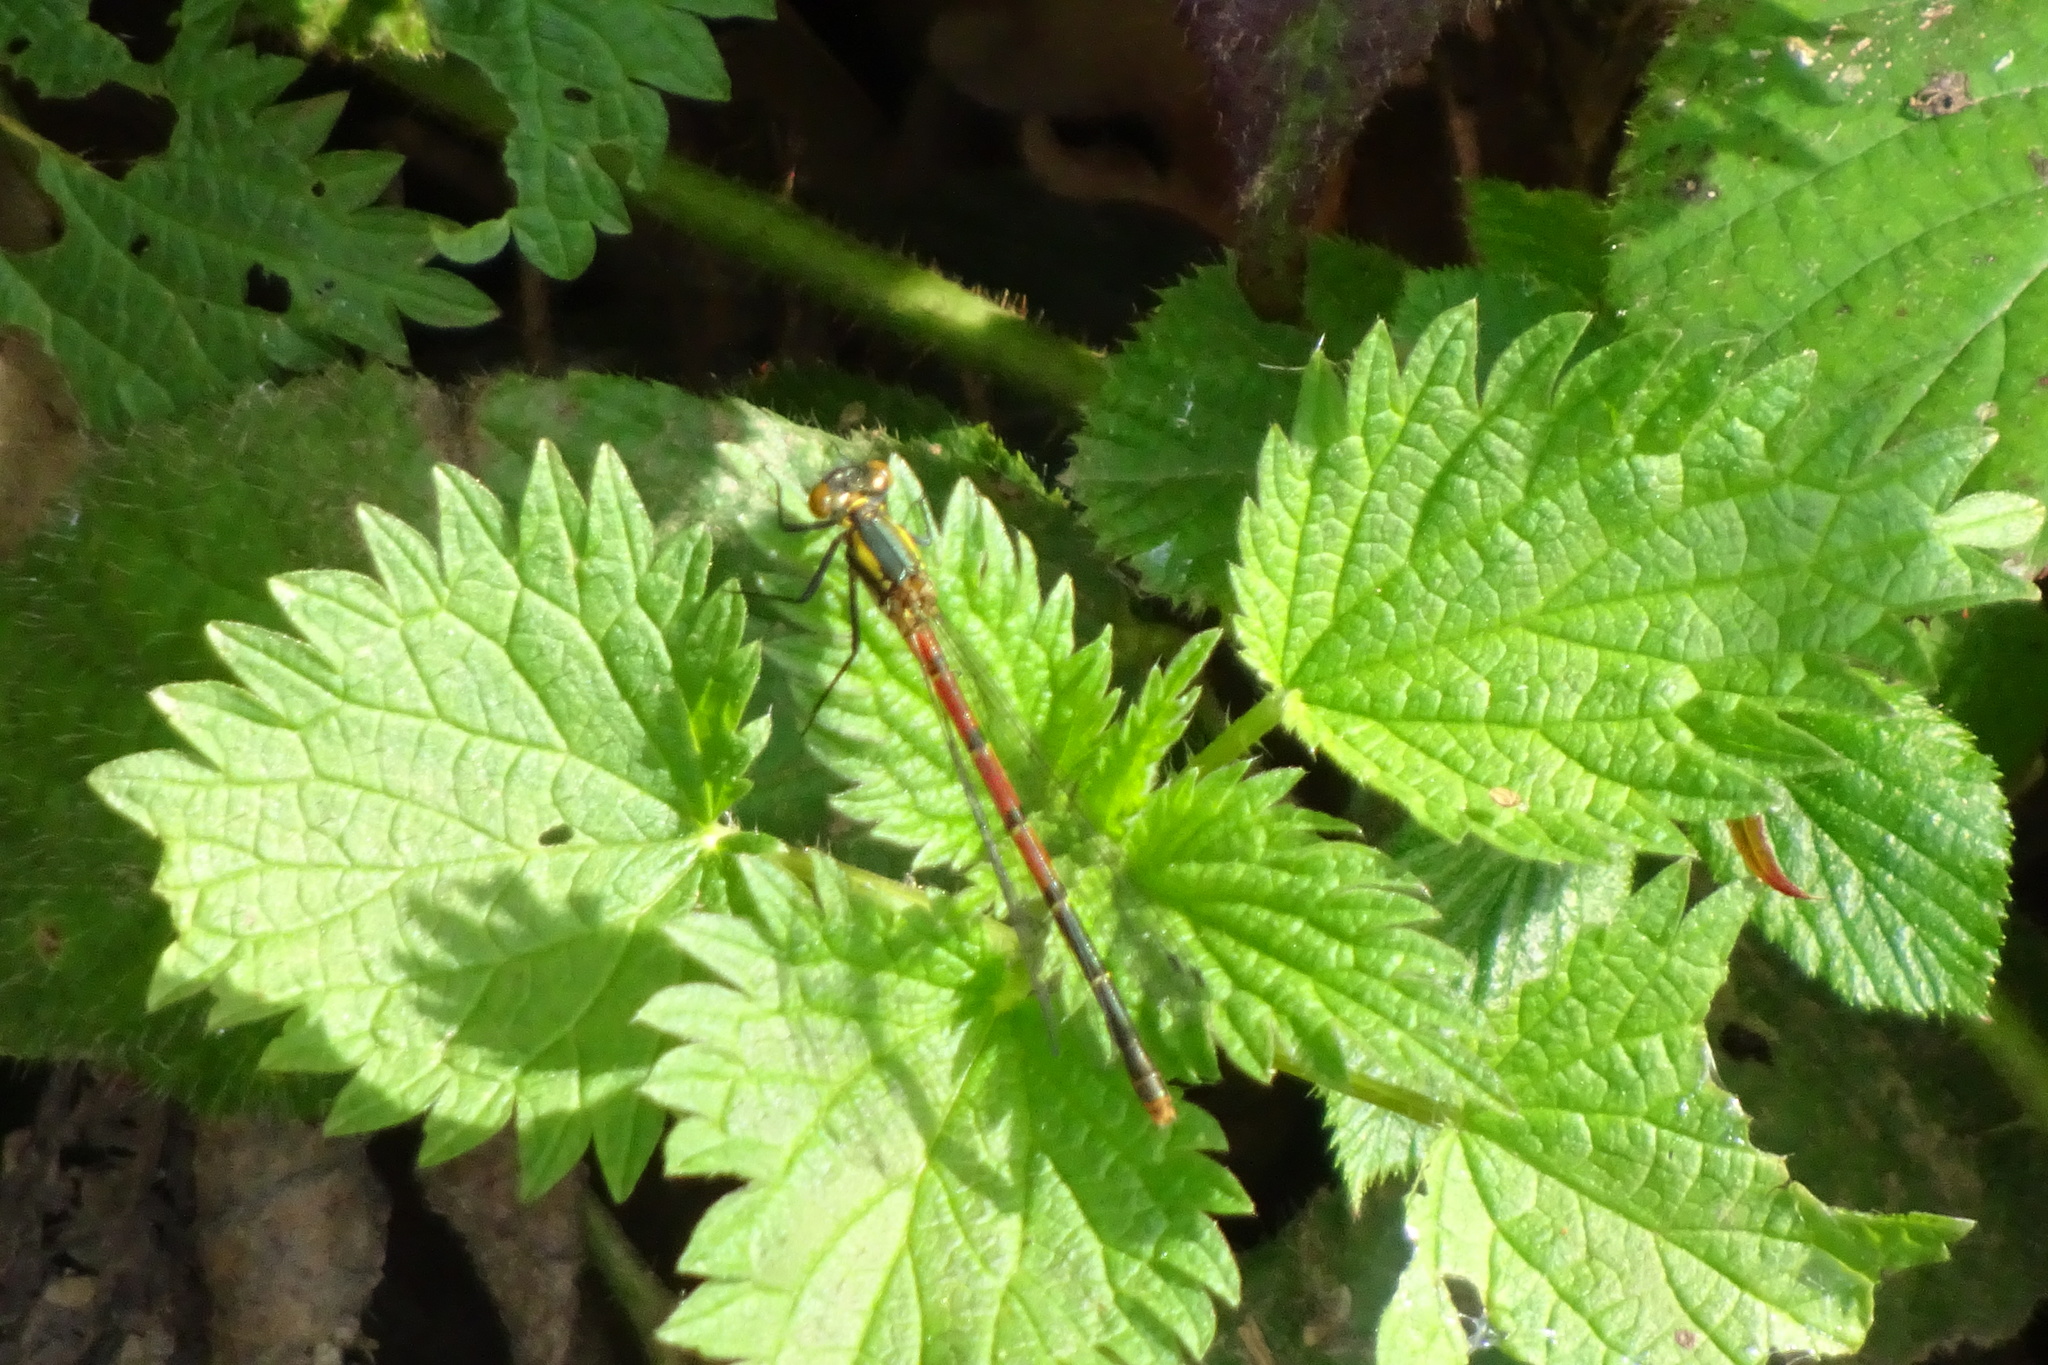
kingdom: Animalia
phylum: Arthropoda
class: Insecta
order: Odonata
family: Coenagrionidae
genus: Pyrrhosoma
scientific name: Pyrrhosoma nymphula
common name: Large red damsel
